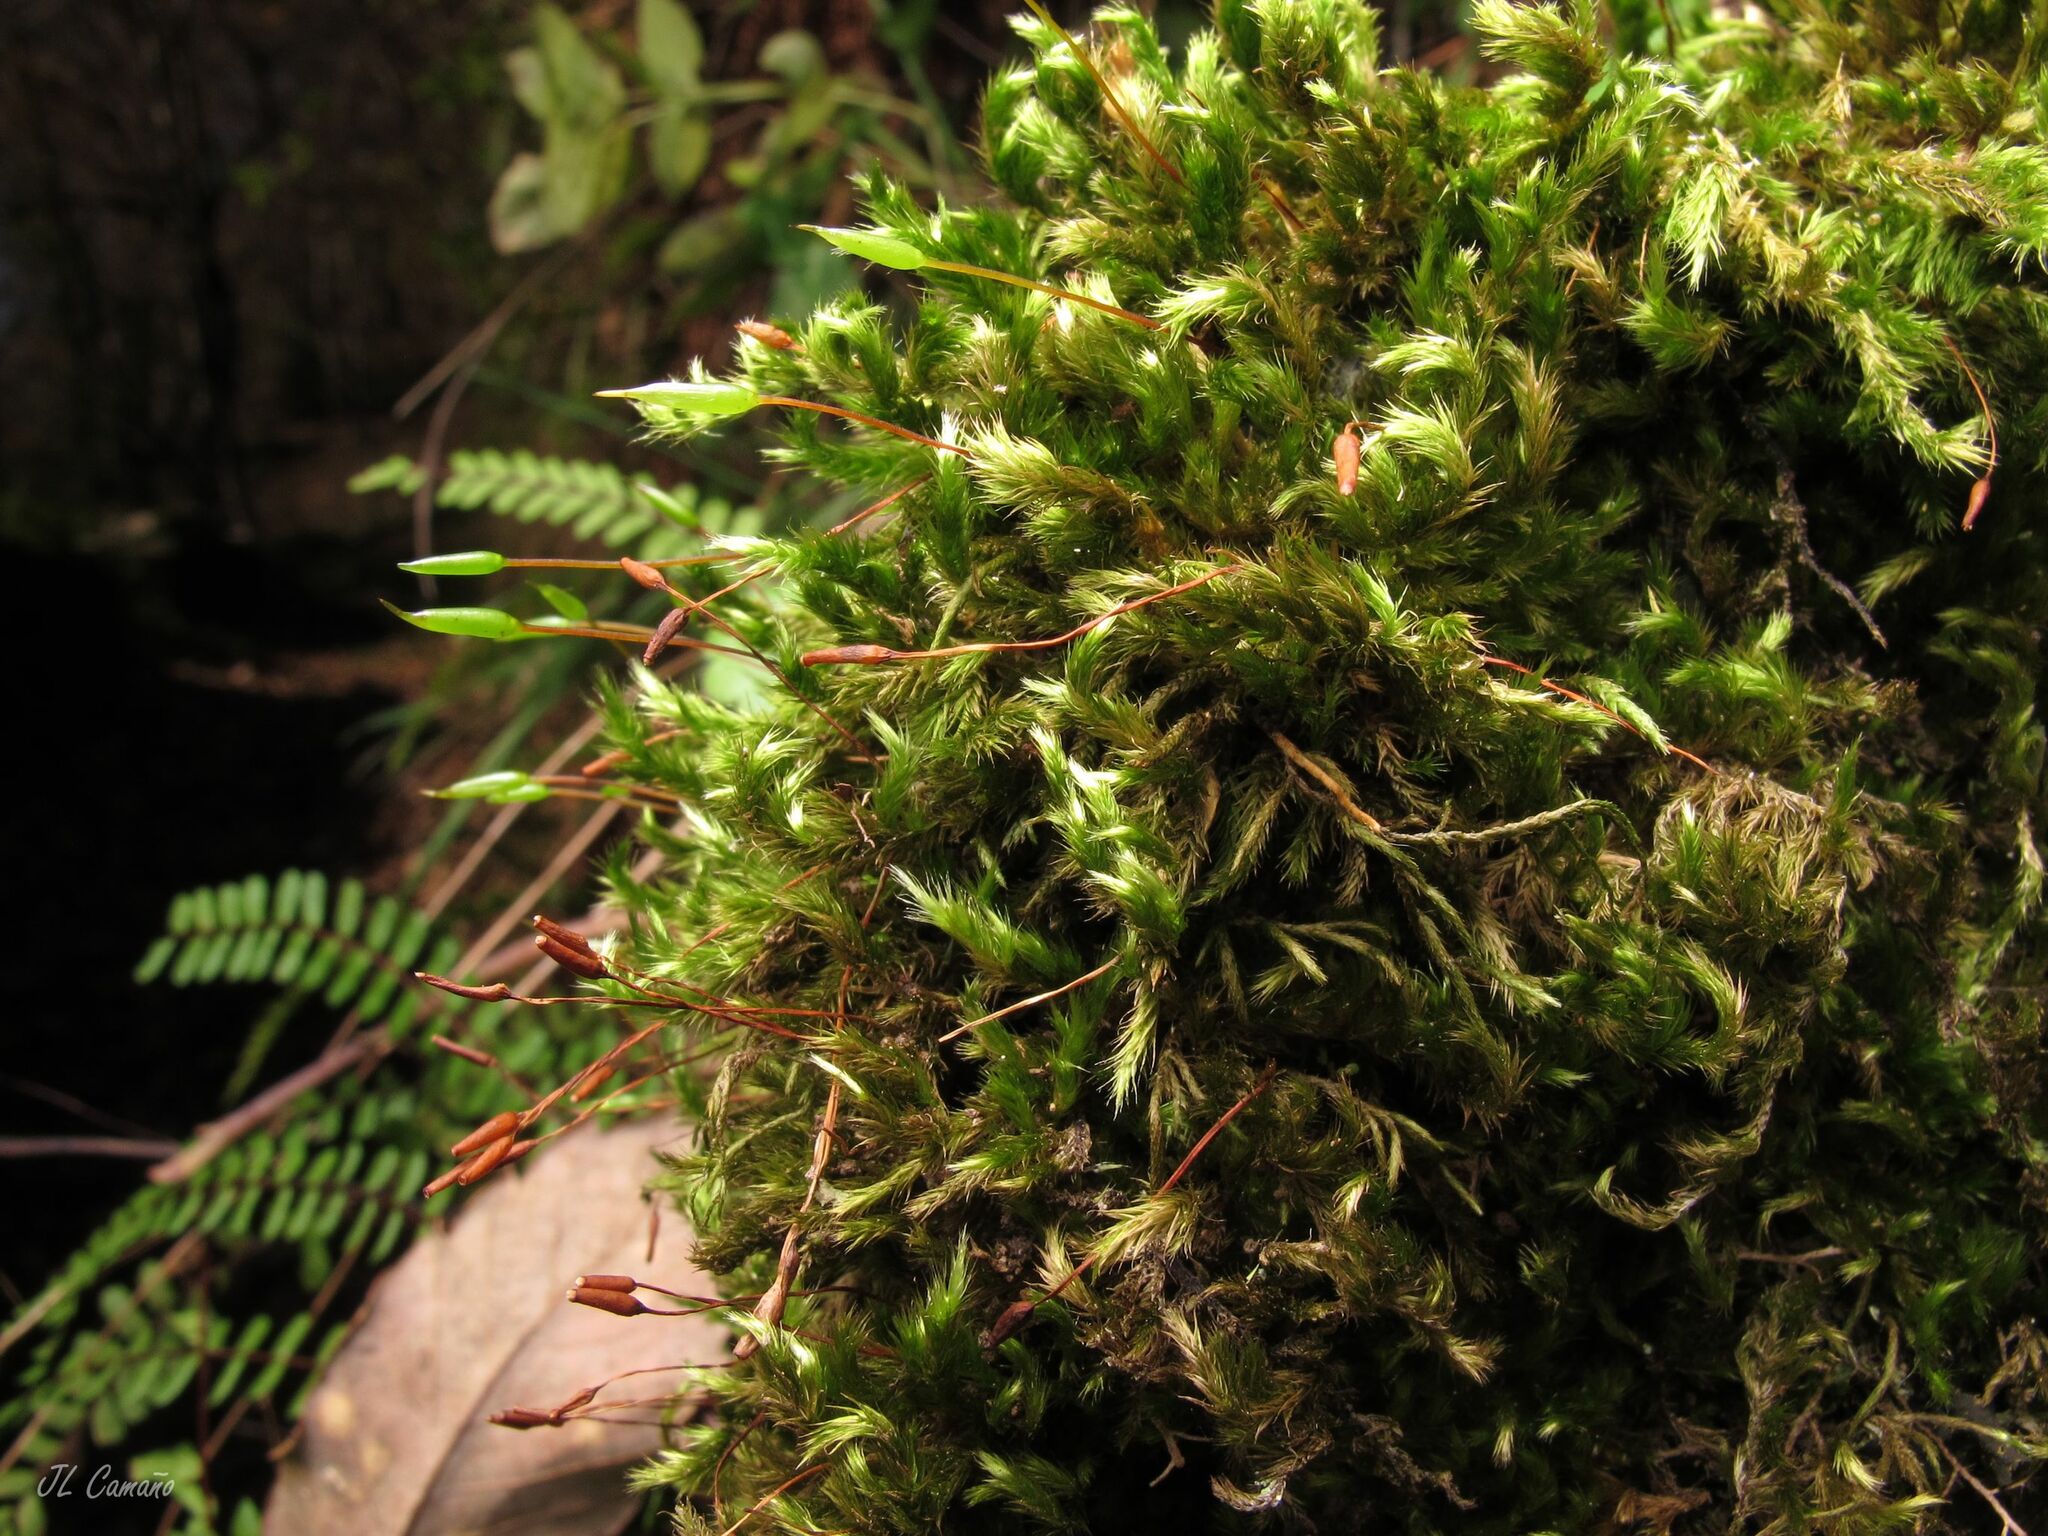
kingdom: Plantae
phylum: Bryophyta
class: Bryopsida
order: Hypnales
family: Brachytheciaceae
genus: Homalothecium
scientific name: Homalothecium sericeum
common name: Silky wall feather-moss
